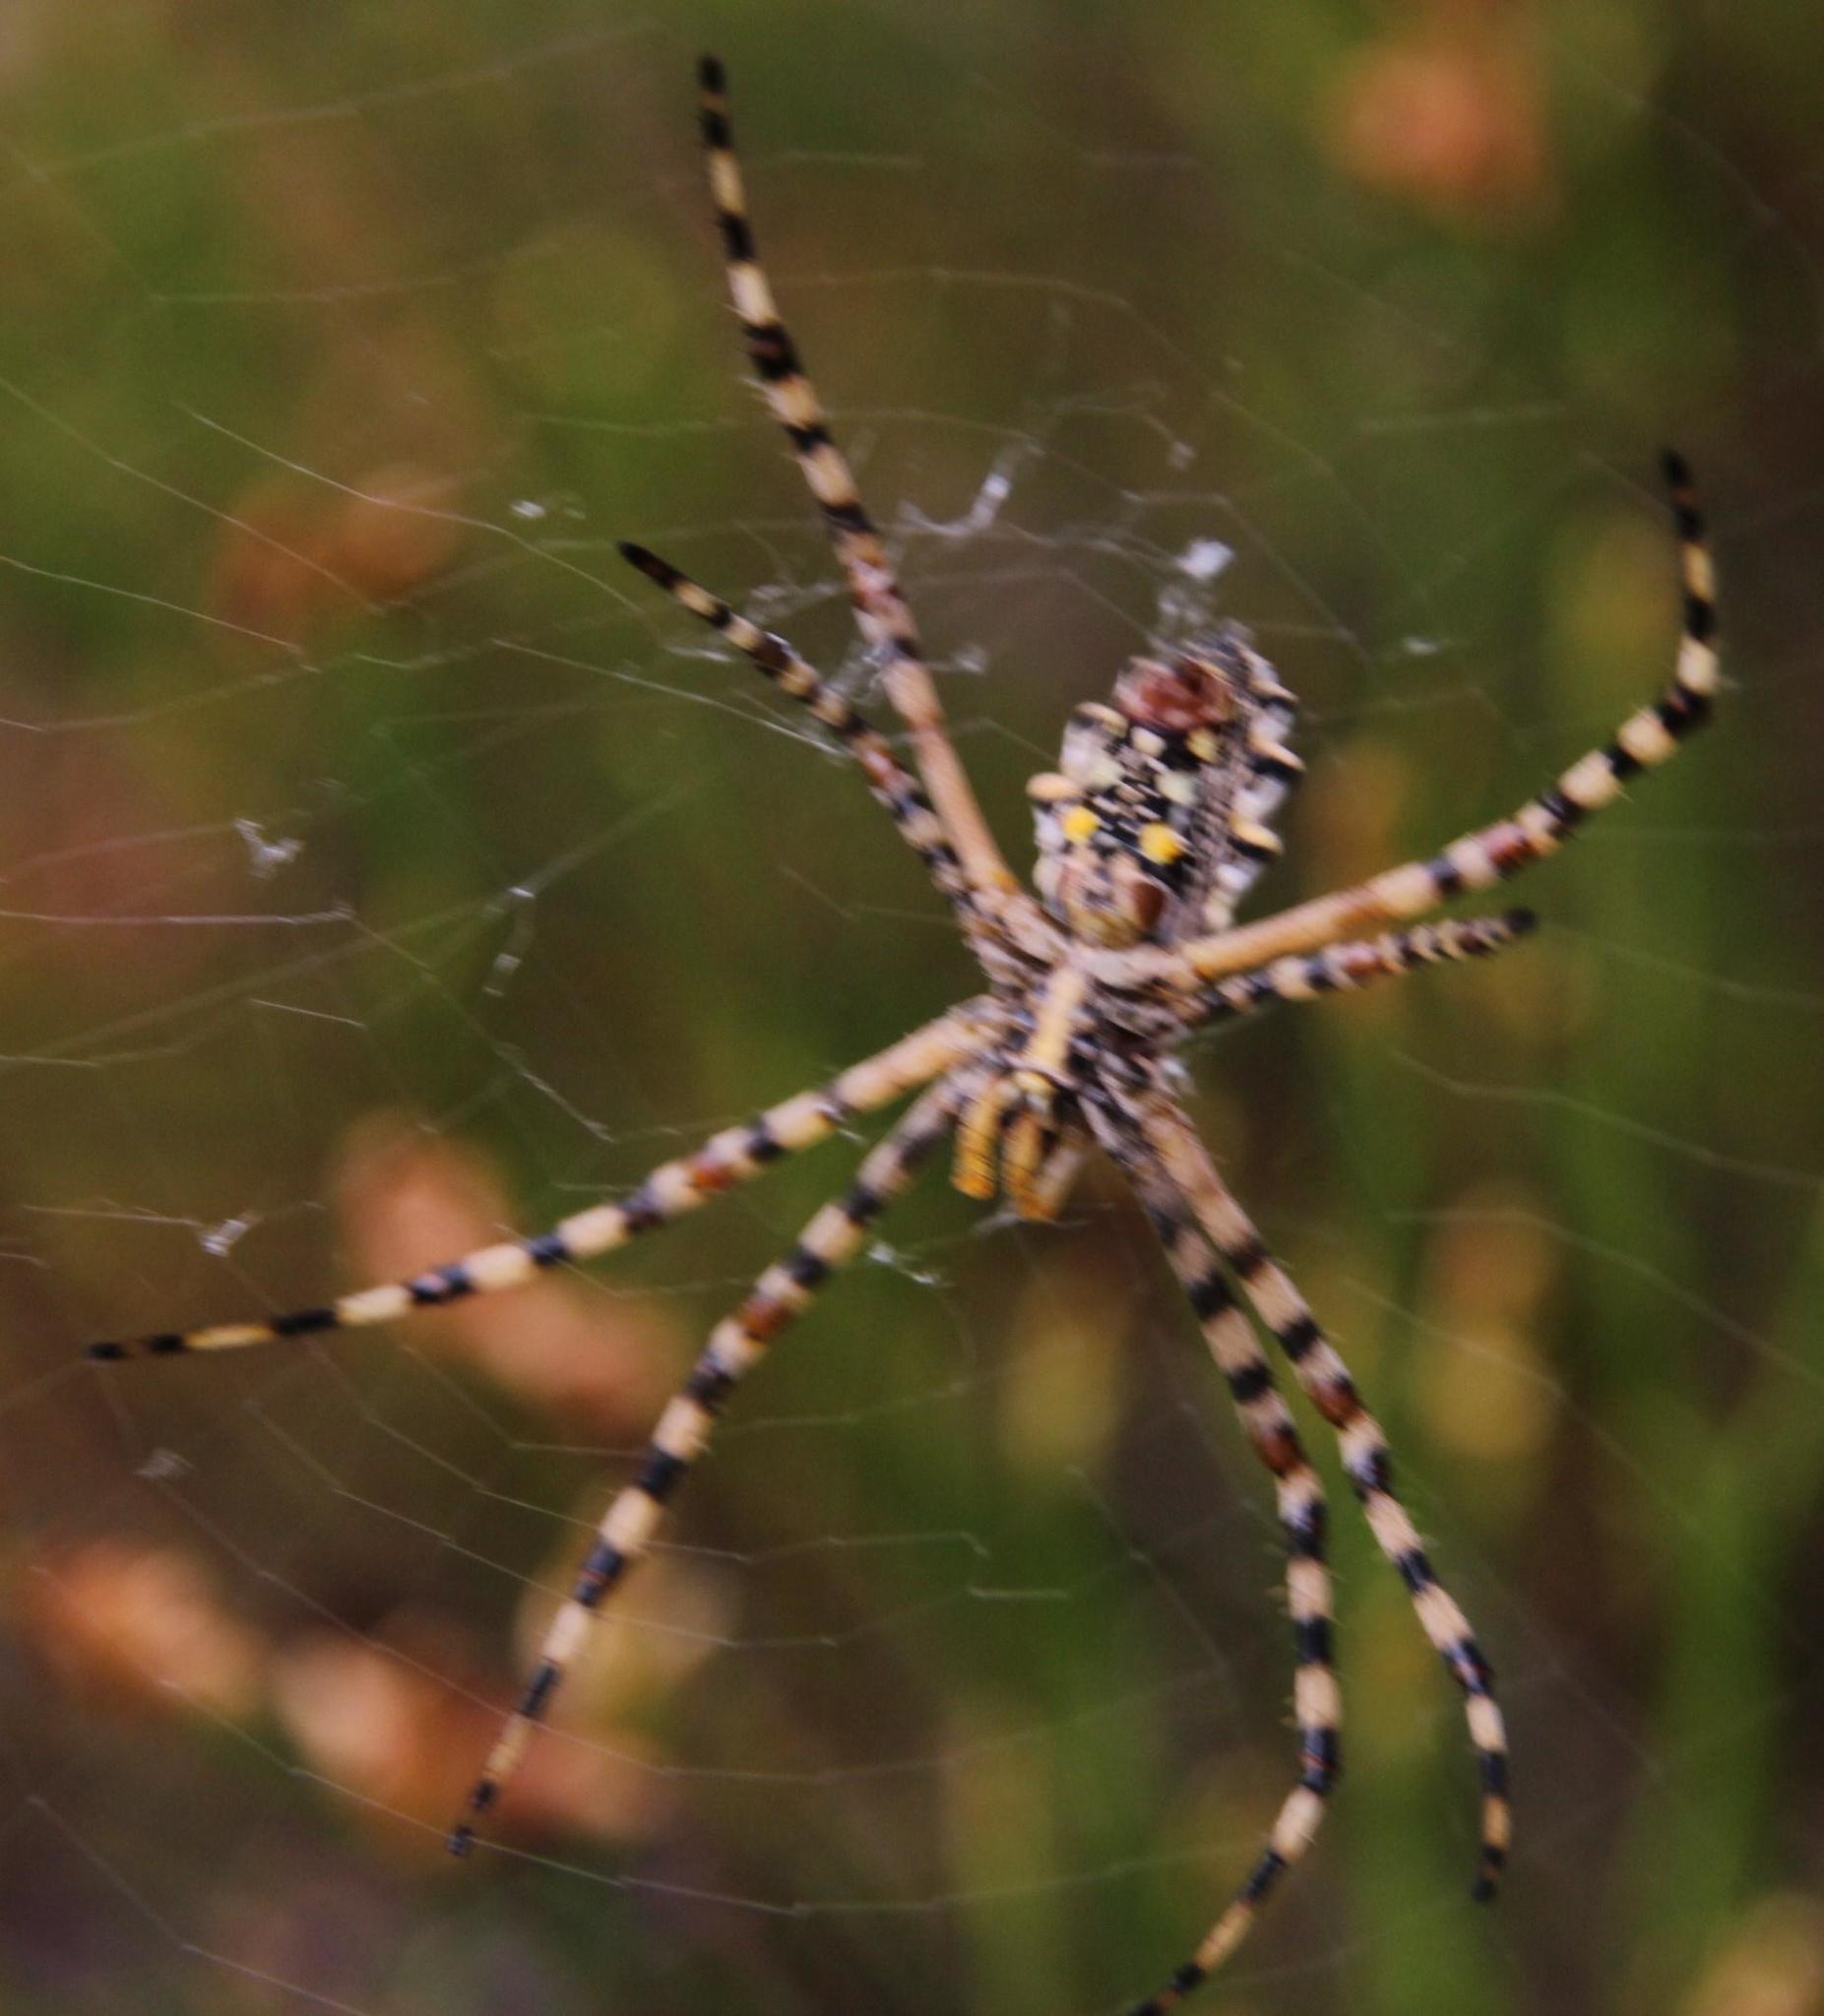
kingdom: Animalia
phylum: Arthropoda
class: Arachnida
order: Araneae
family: Araneidae
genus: Argiope
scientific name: Argiope australis
